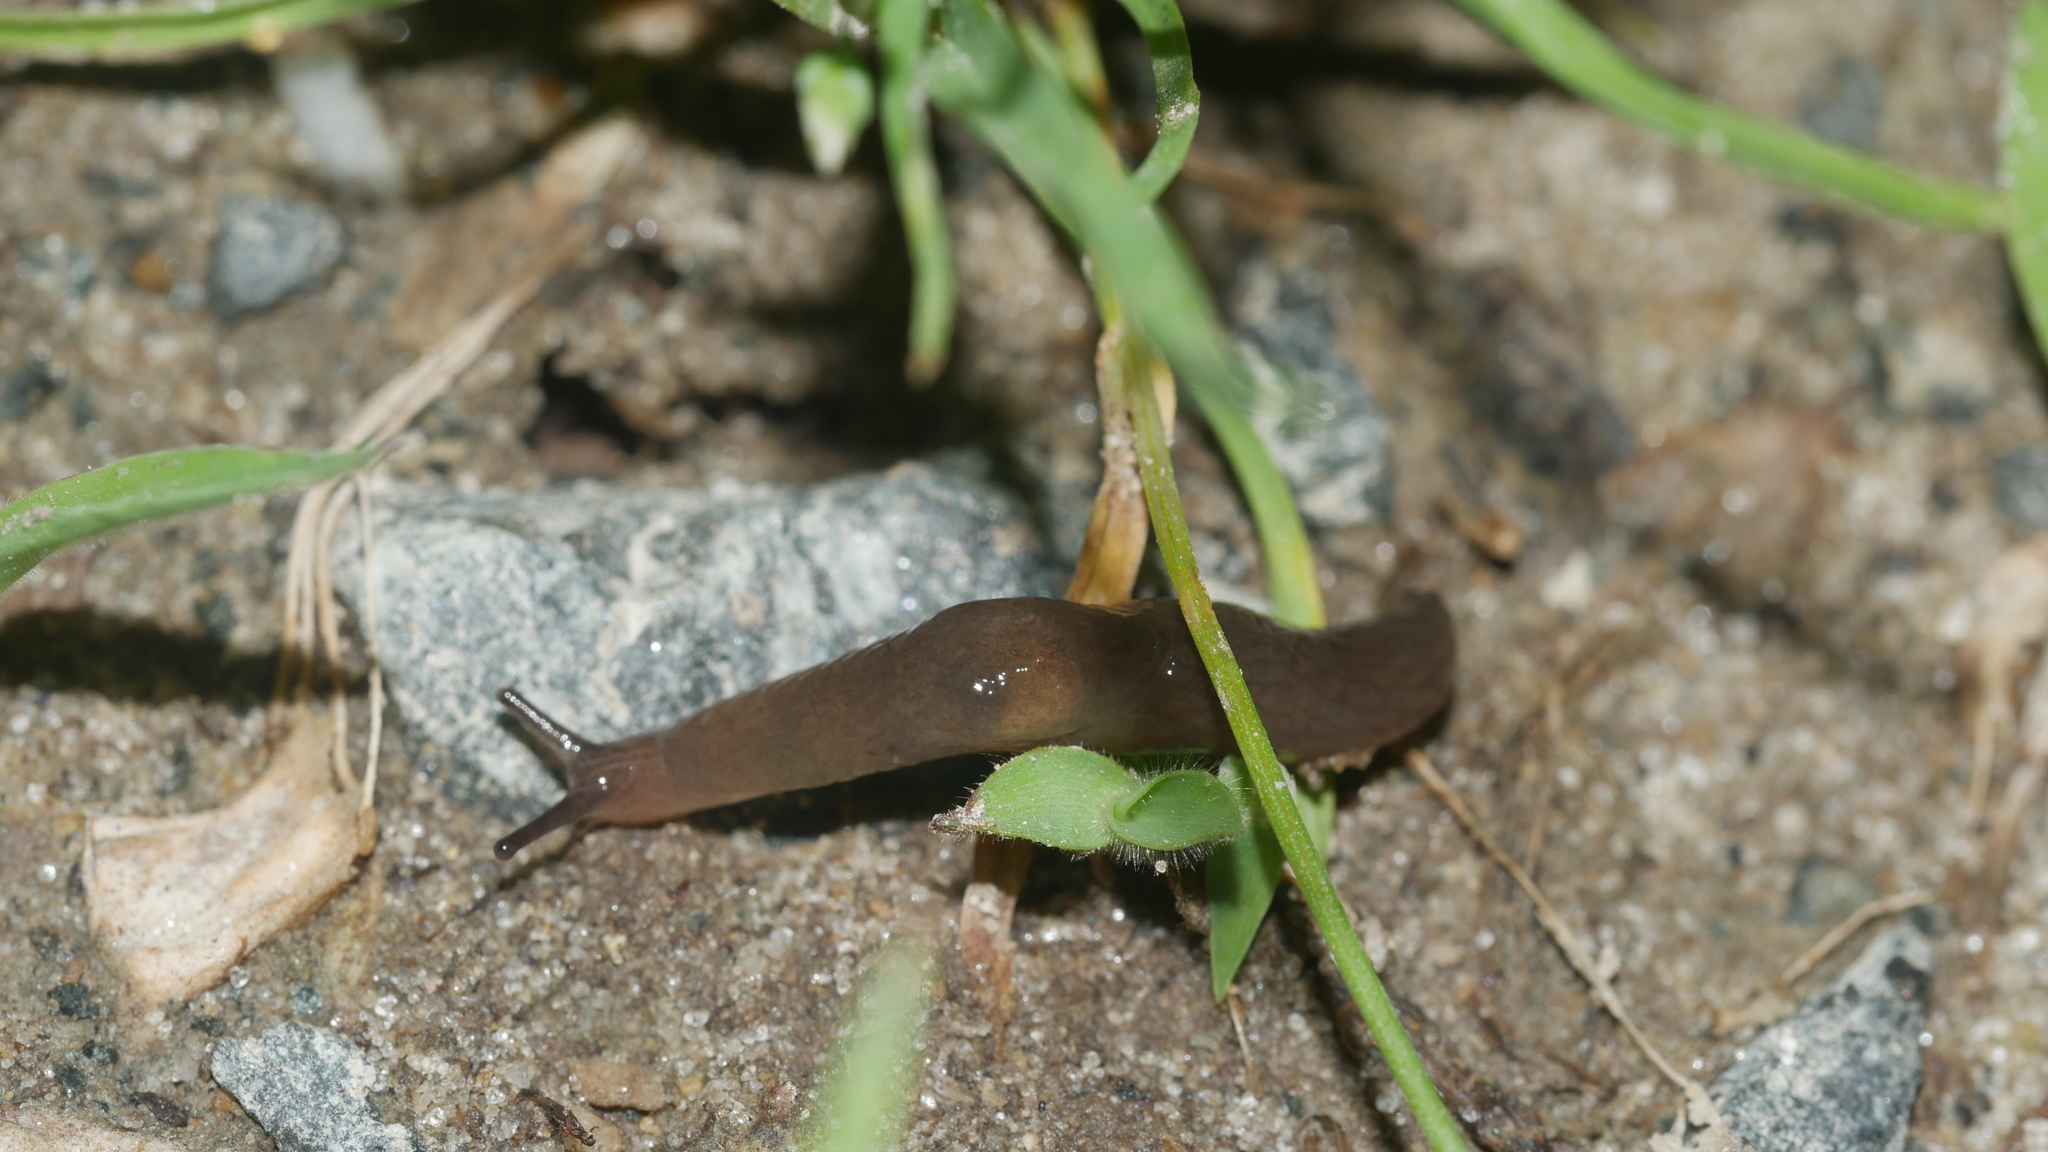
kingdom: Animalia
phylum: Mollusca
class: Gastropoda
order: Stylommatophora
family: Agriolimacidae
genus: Deroceras
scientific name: Deroceras invadens
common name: Caruana's slug
